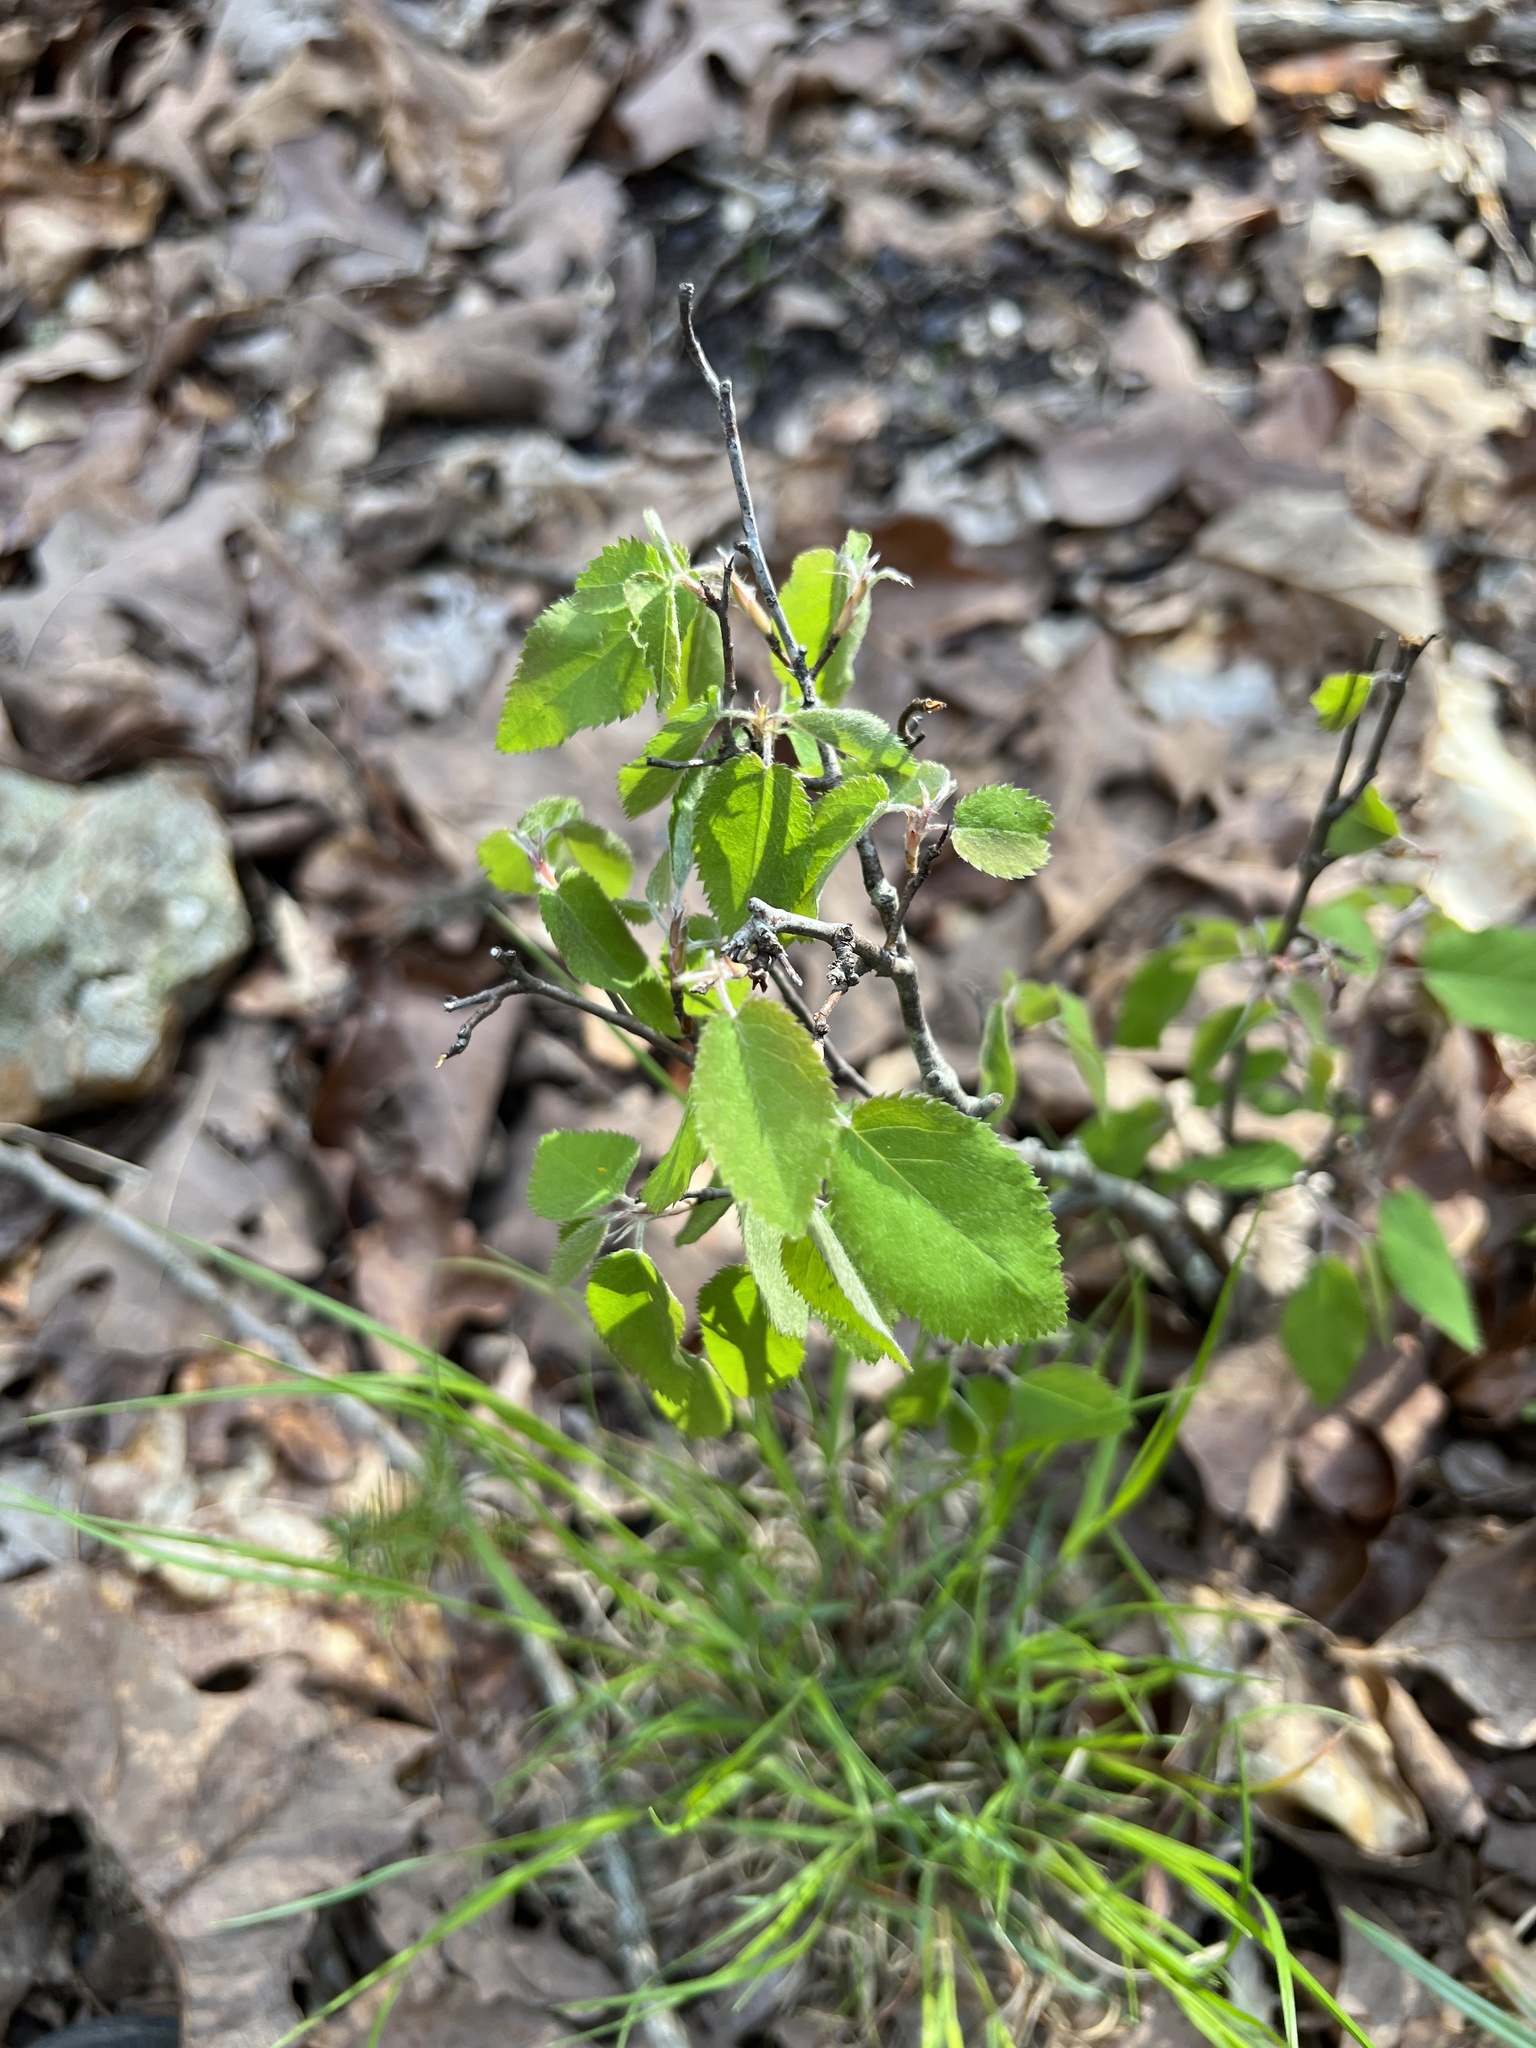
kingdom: Plantae
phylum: Tracheophyta
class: Magnoliopsida
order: Rosales
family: Rosaceae
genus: Amelanchier
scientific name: Amelanchier arborea
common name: Downy serviceberry
